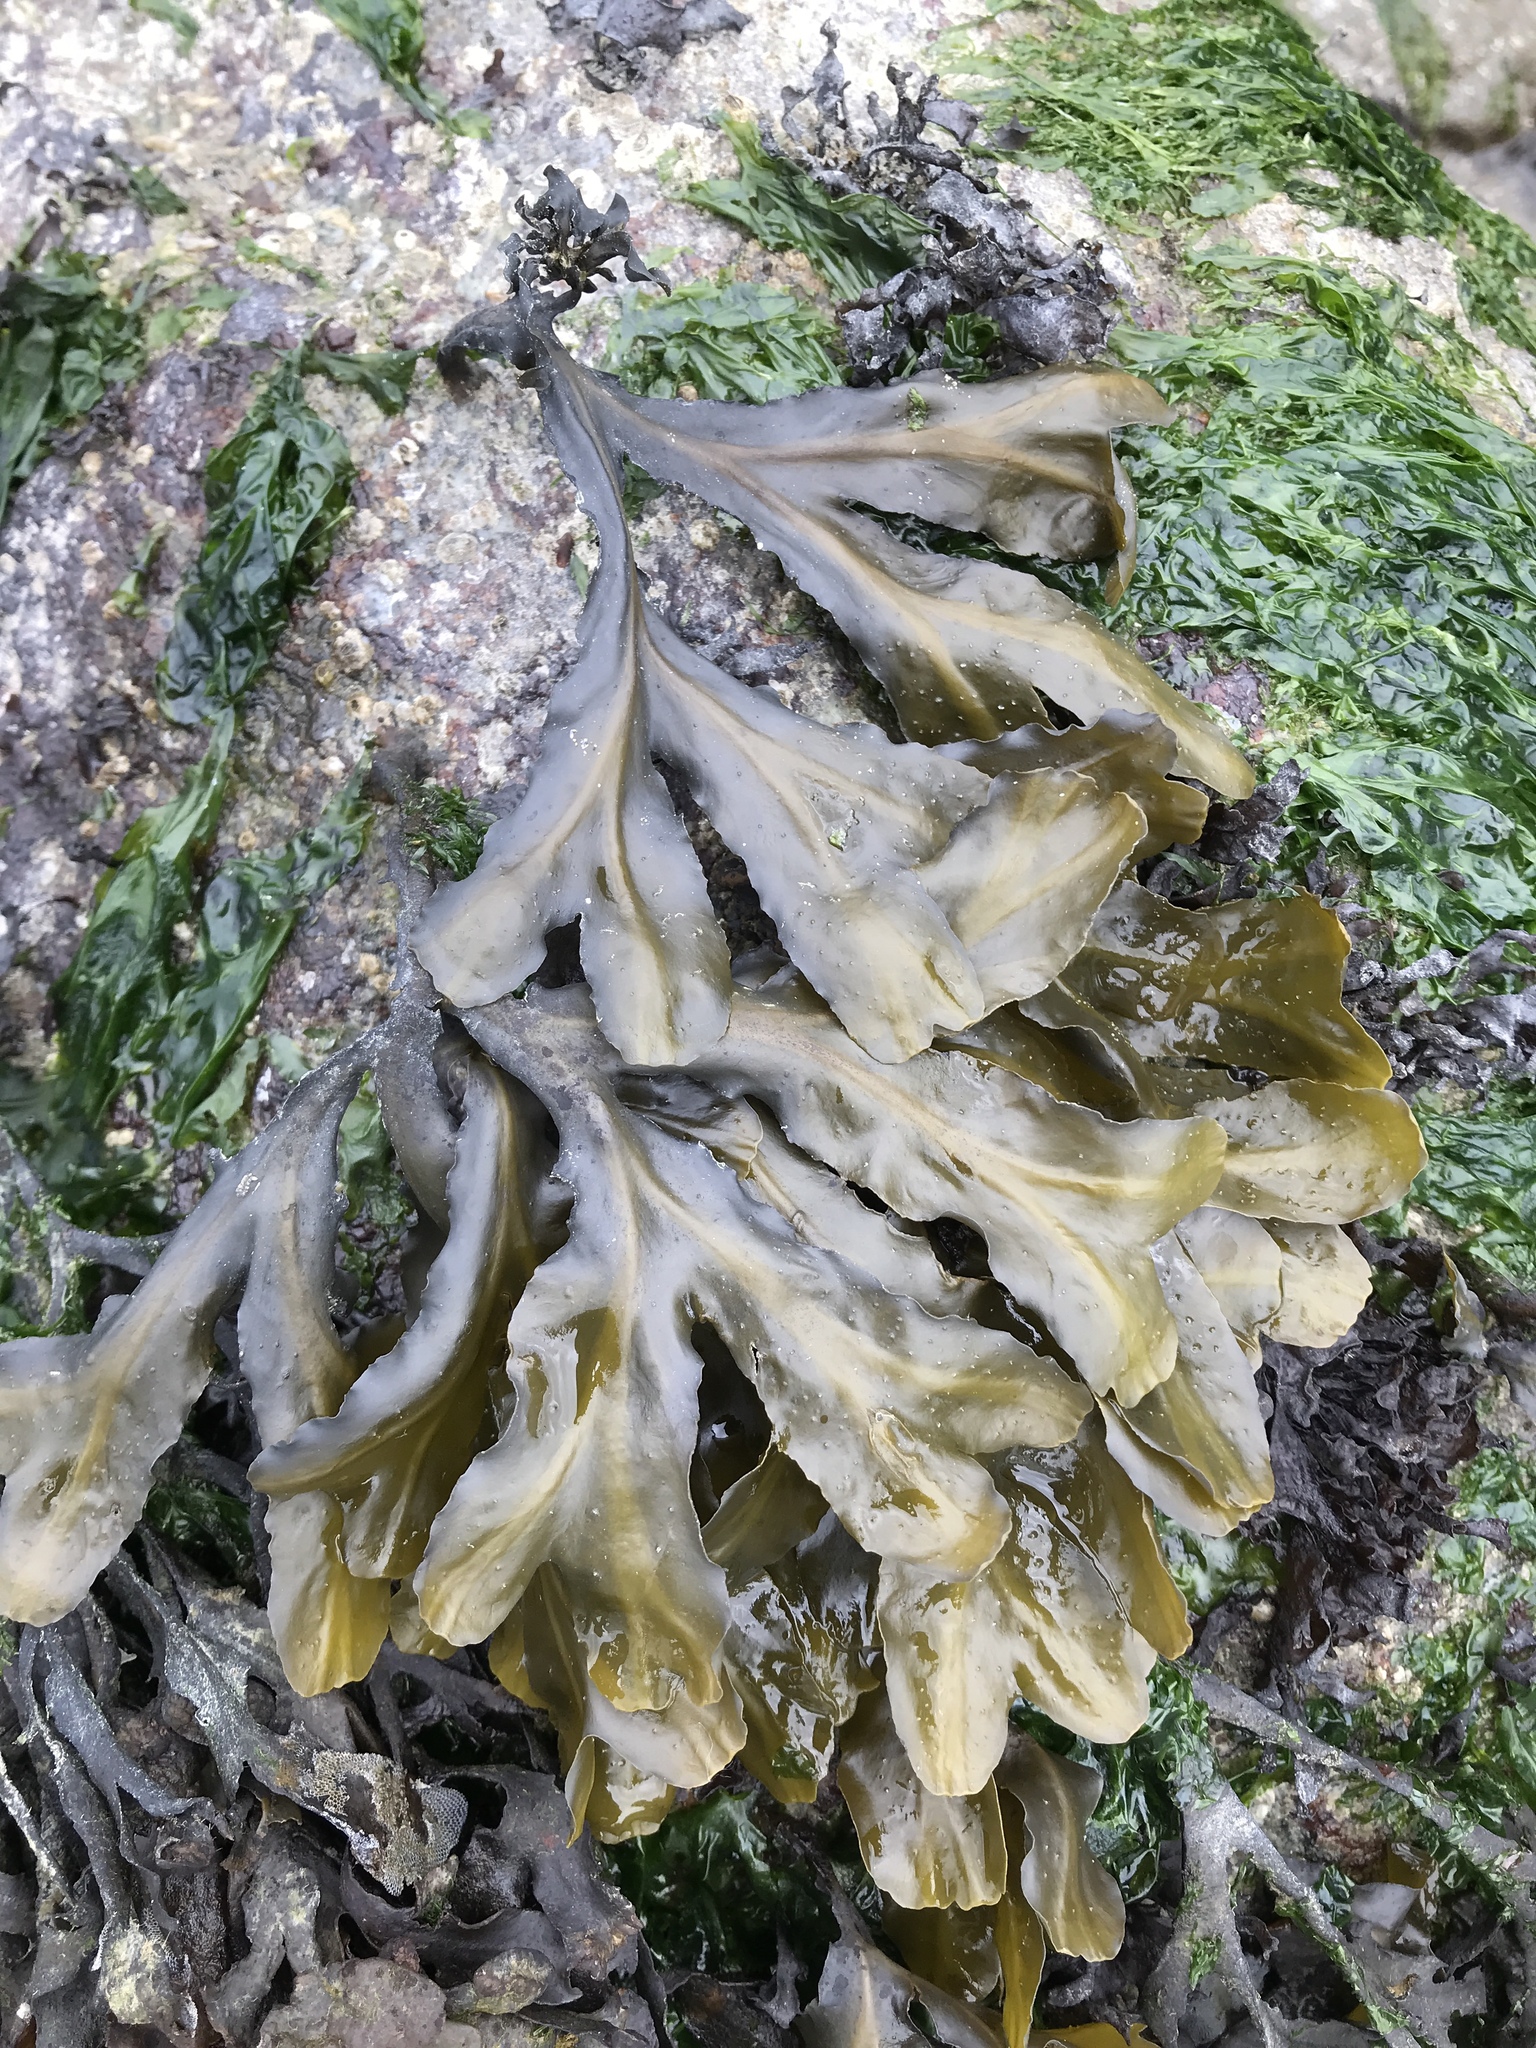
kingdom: Chromista
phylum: Ochrophyta
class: Phaeophyceae
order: Fucales
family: Fucaceae
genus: Fucus
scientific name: Fucus distichus
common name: Rockweed
